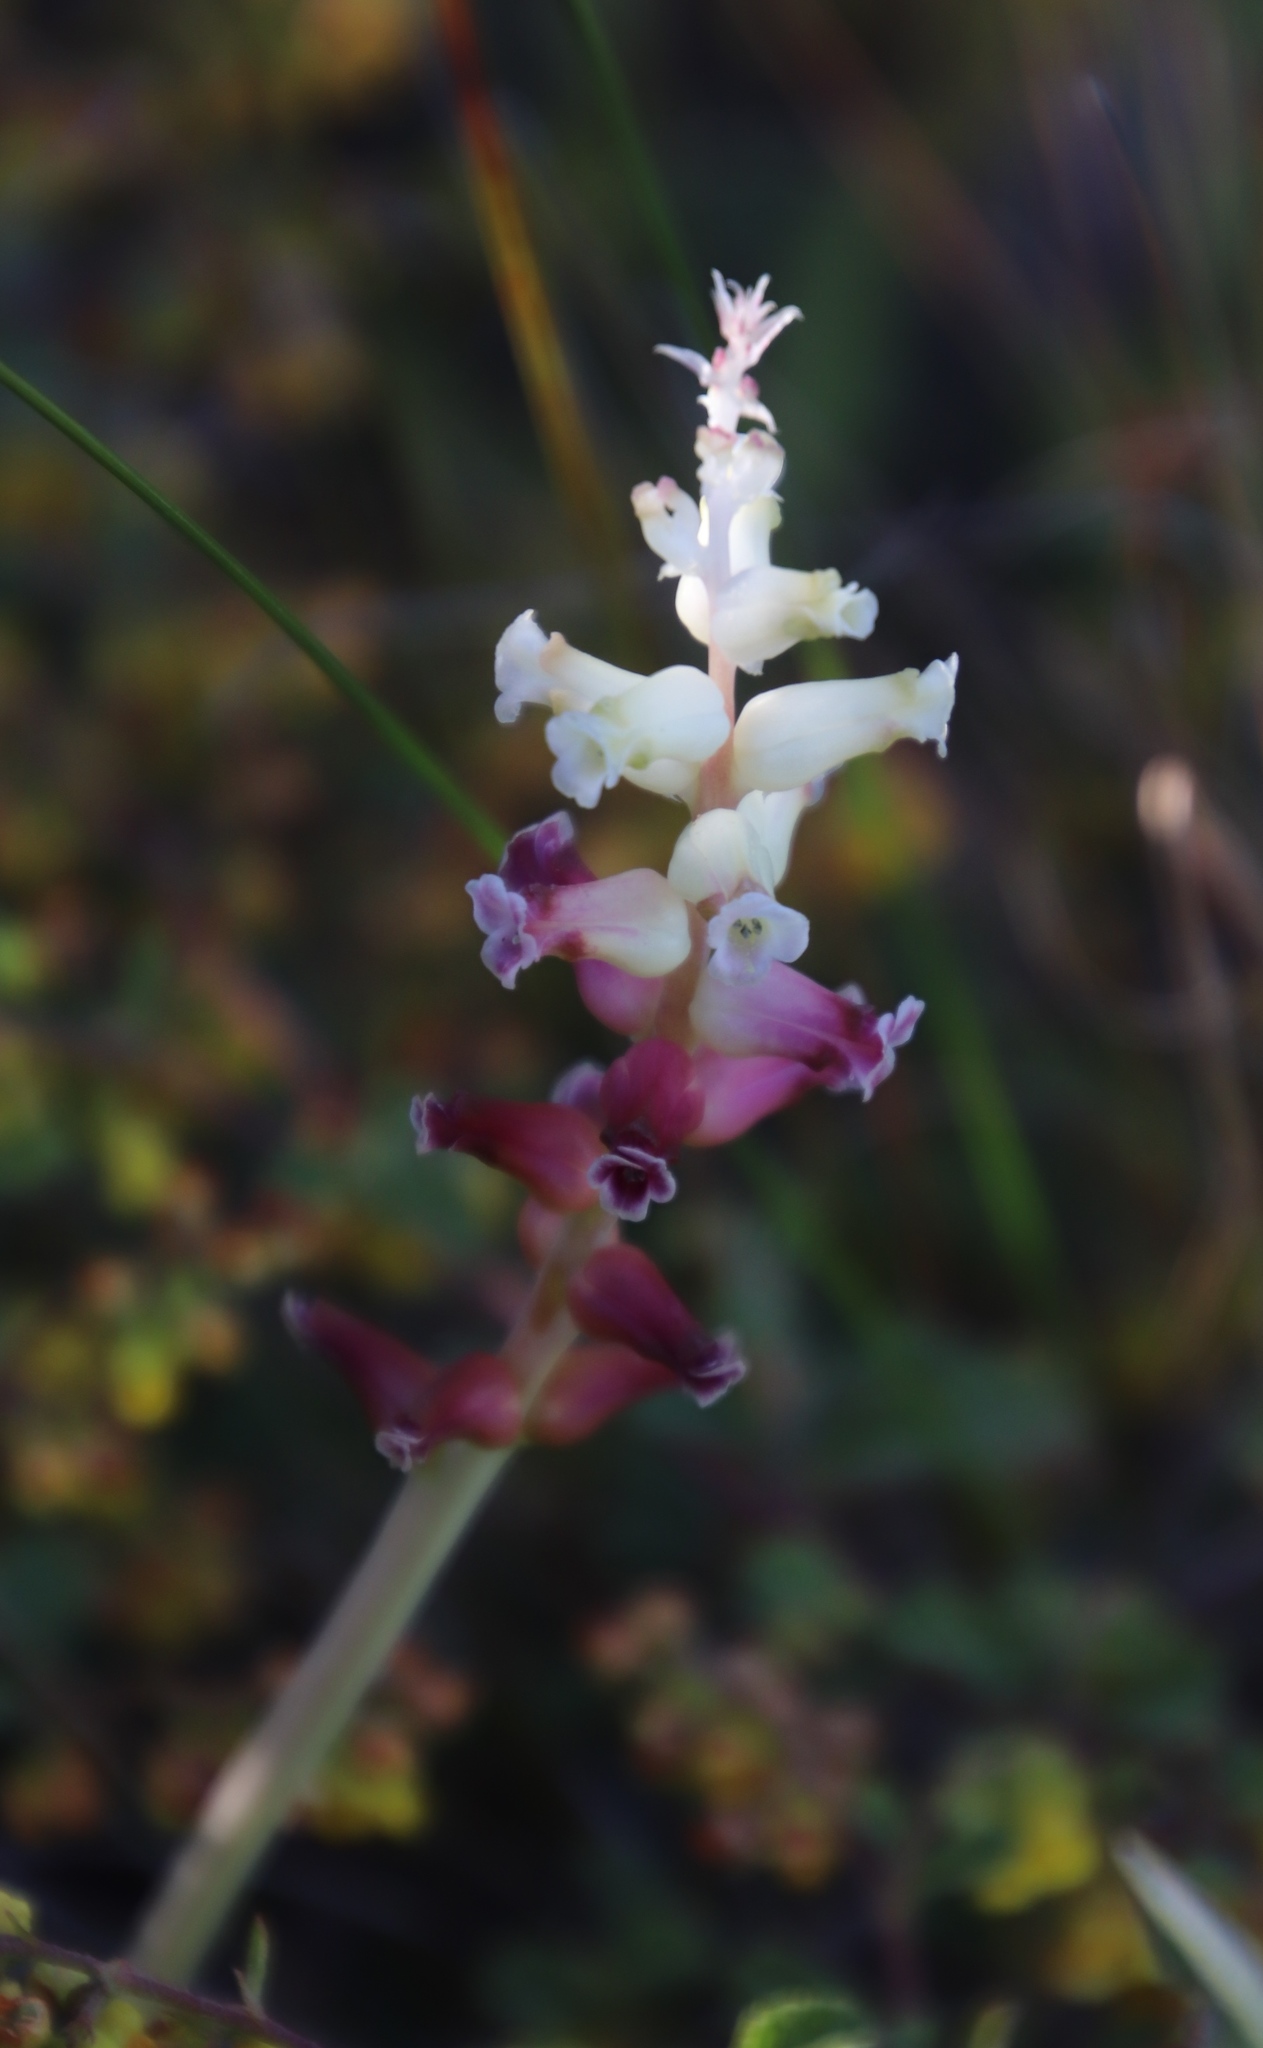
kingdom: Plantae
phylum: Tracheophyta
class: Liliopsida
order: Asparagales
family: Asparagaceae
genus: Lachenalia
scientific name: Lachenalia fistulosa
